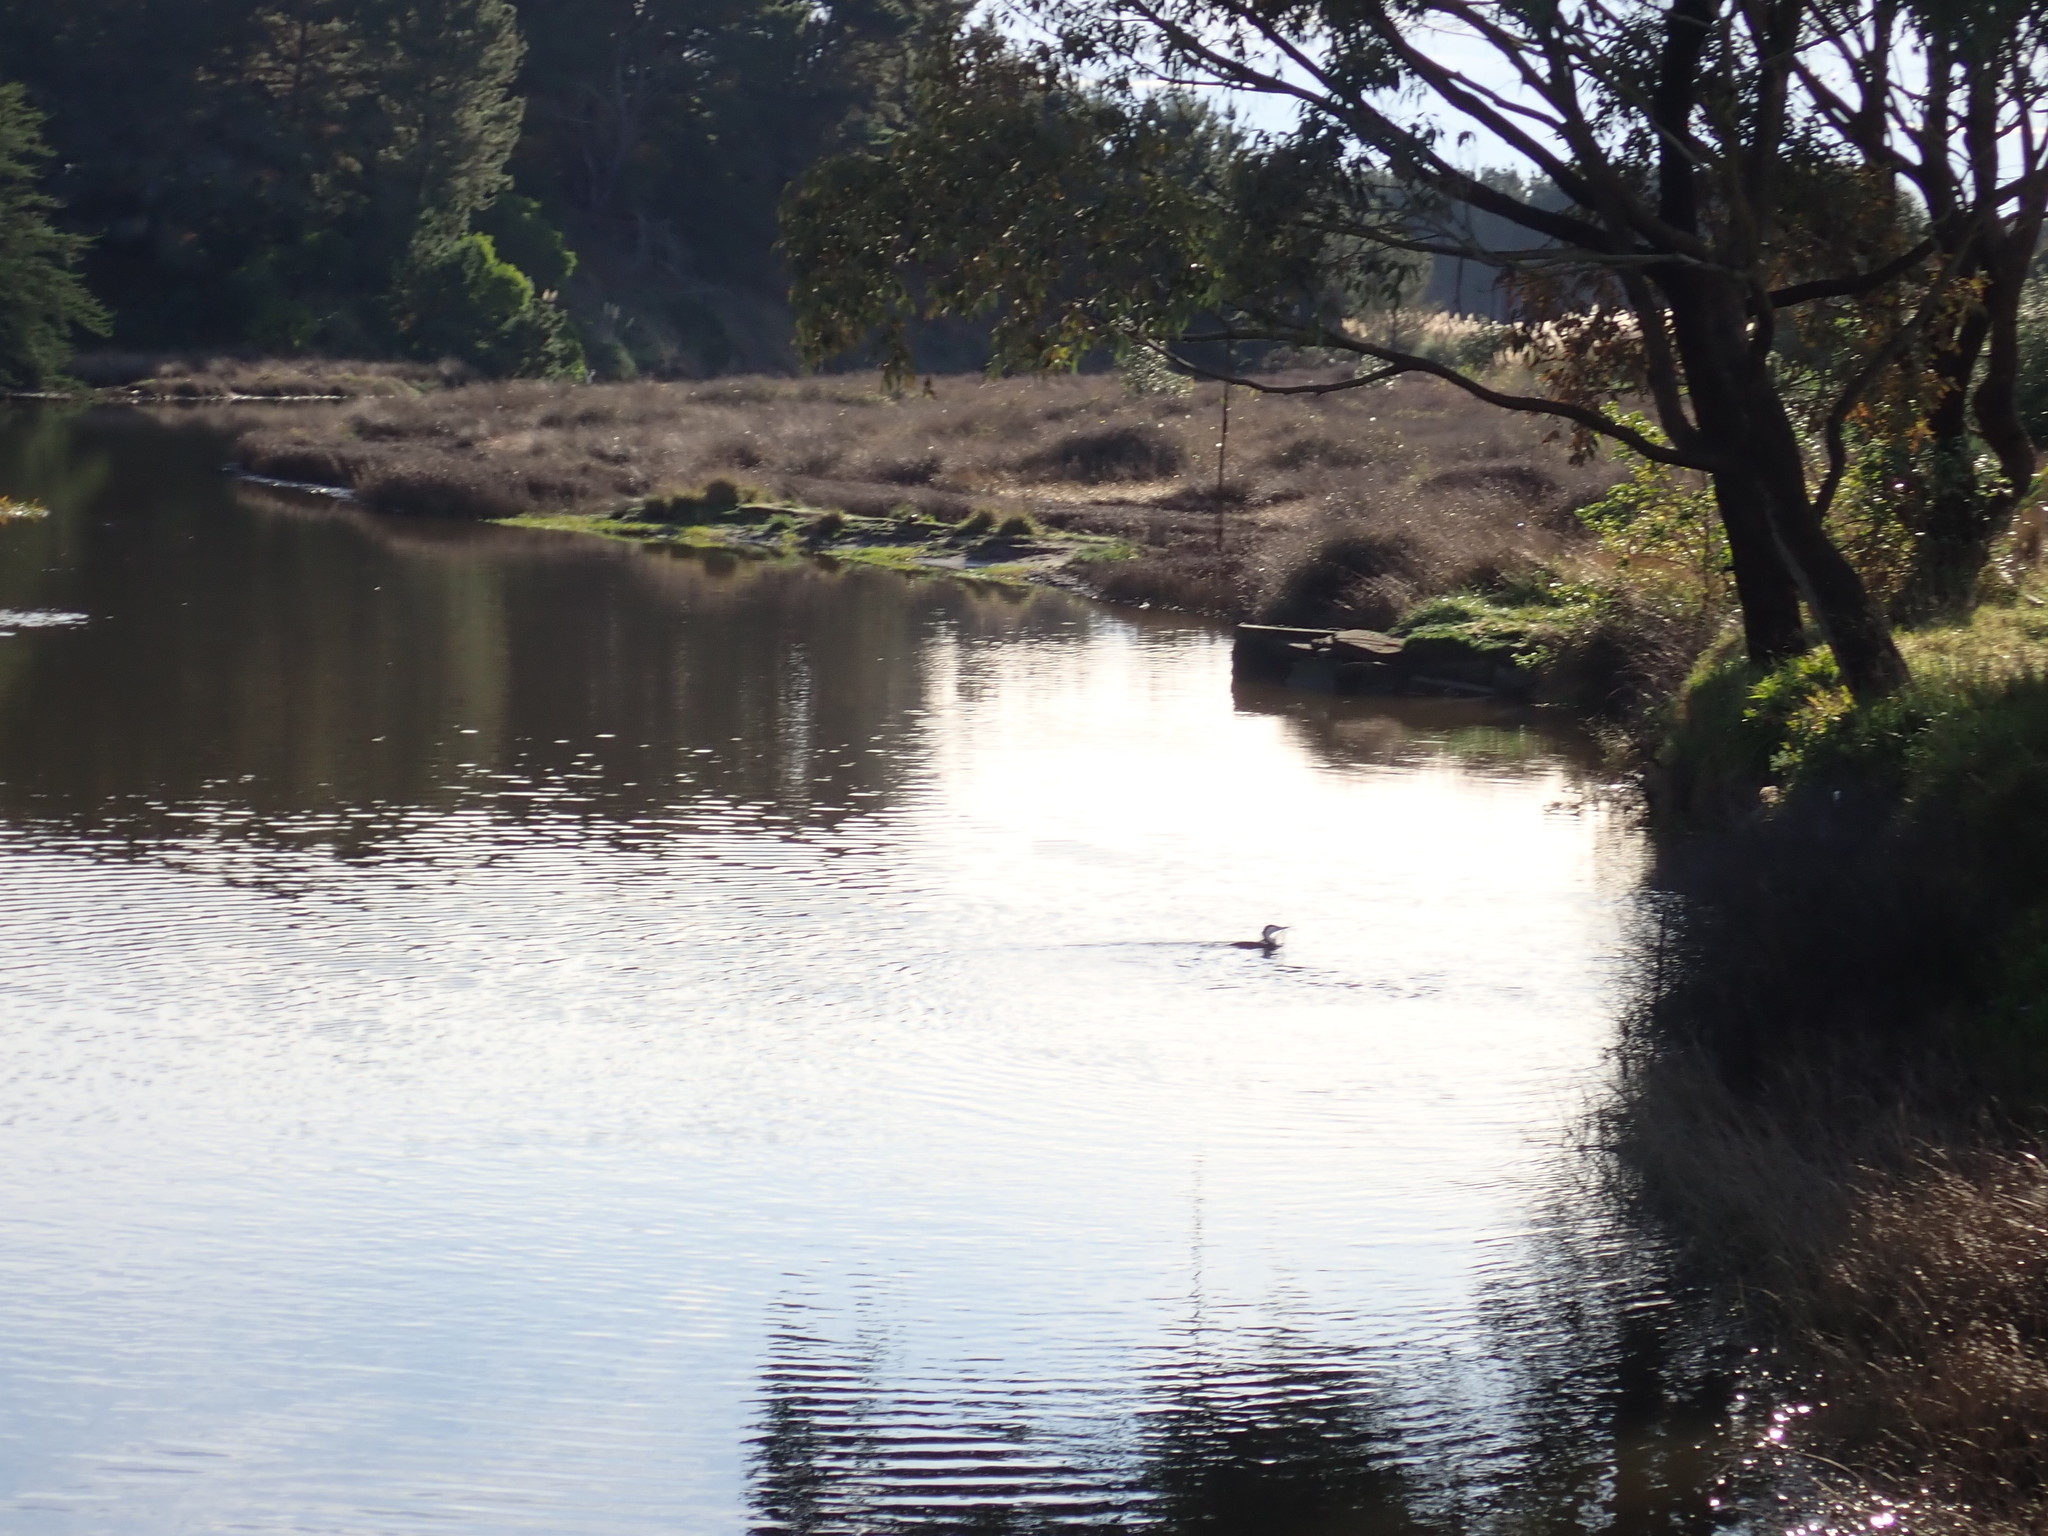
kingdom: Animalia
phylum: Chordata
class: Aves
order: Suliformes
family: Phalacrocoracidae
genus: Phalacrocorax
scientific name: Phalacrocorax varius
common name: Pied cormorant
